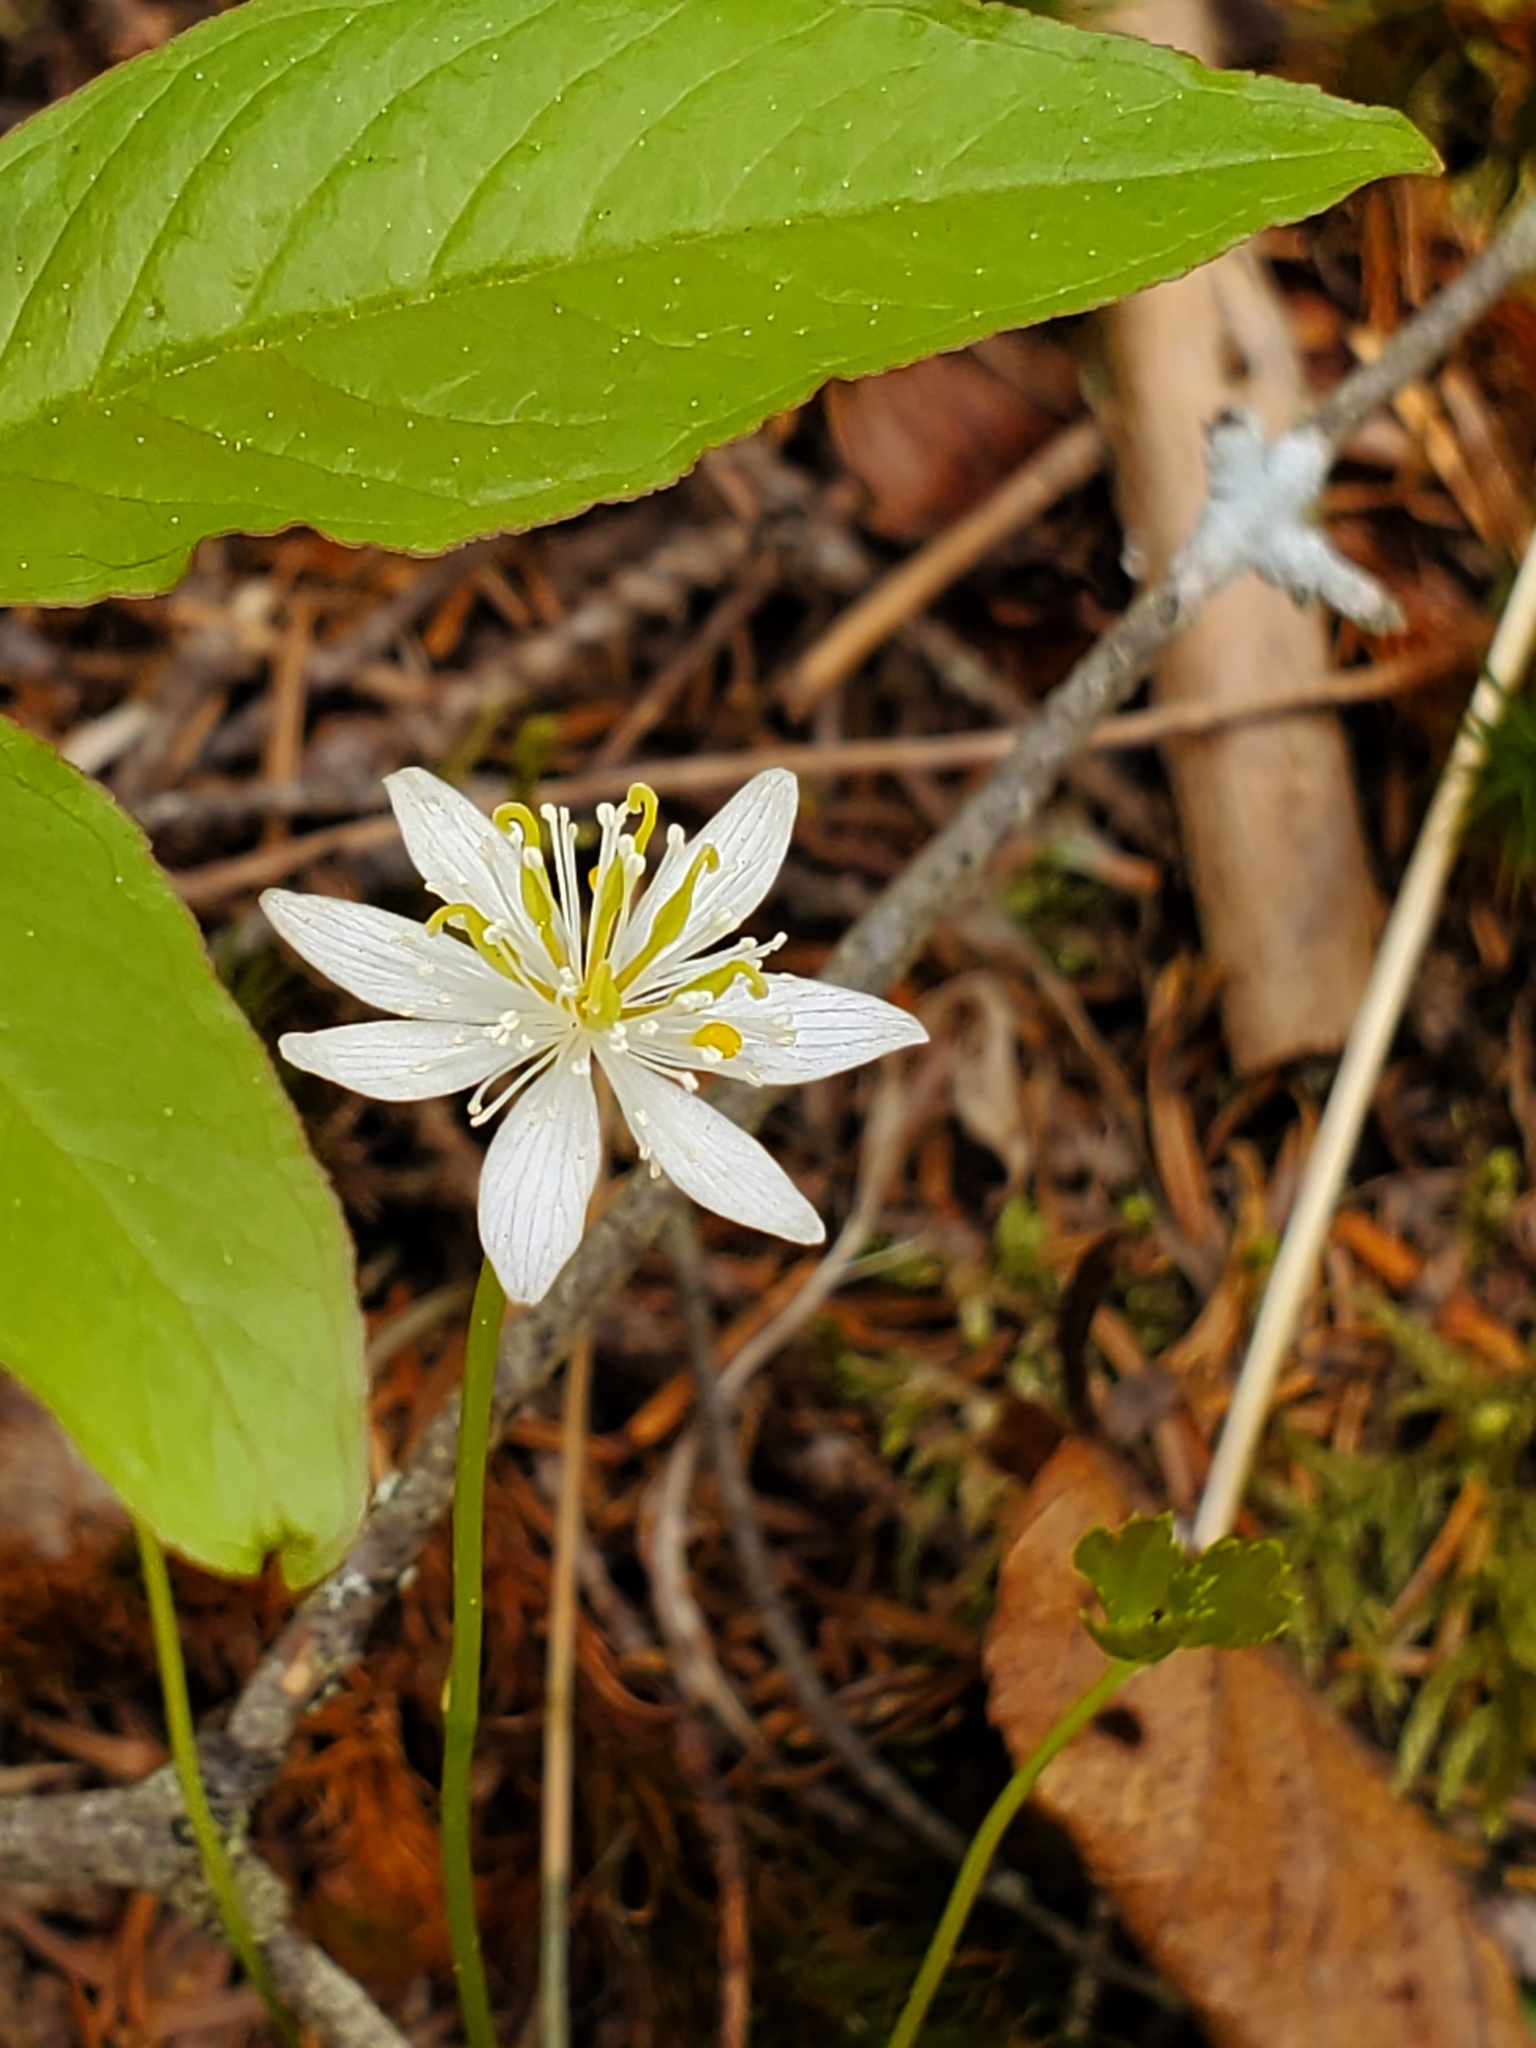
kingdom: Plantae
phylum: Tracheophyta
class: Magnoliopsida
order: Ranunculales
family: Ranunculaceae
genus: Coptis
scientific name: Coptis trifolia
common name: Canker-root
